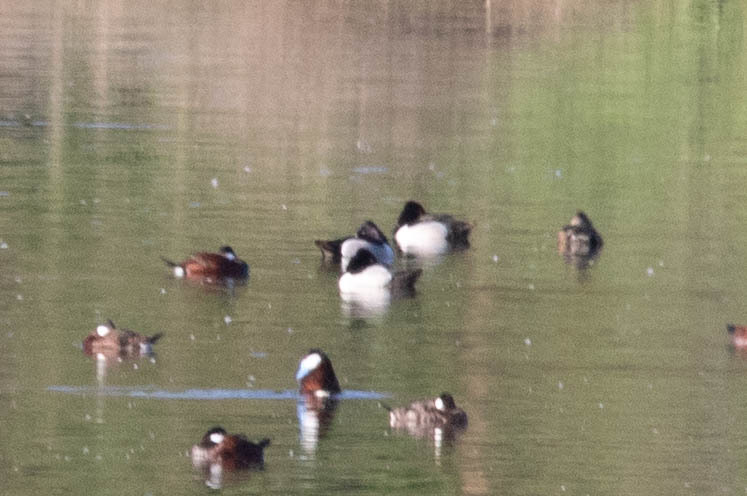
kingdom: Animalia
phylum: Chordata
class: Aves
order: Anseriformes
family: Anatidae
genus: Aythya
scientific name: Aythya collaris
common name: Ring-necked duck
